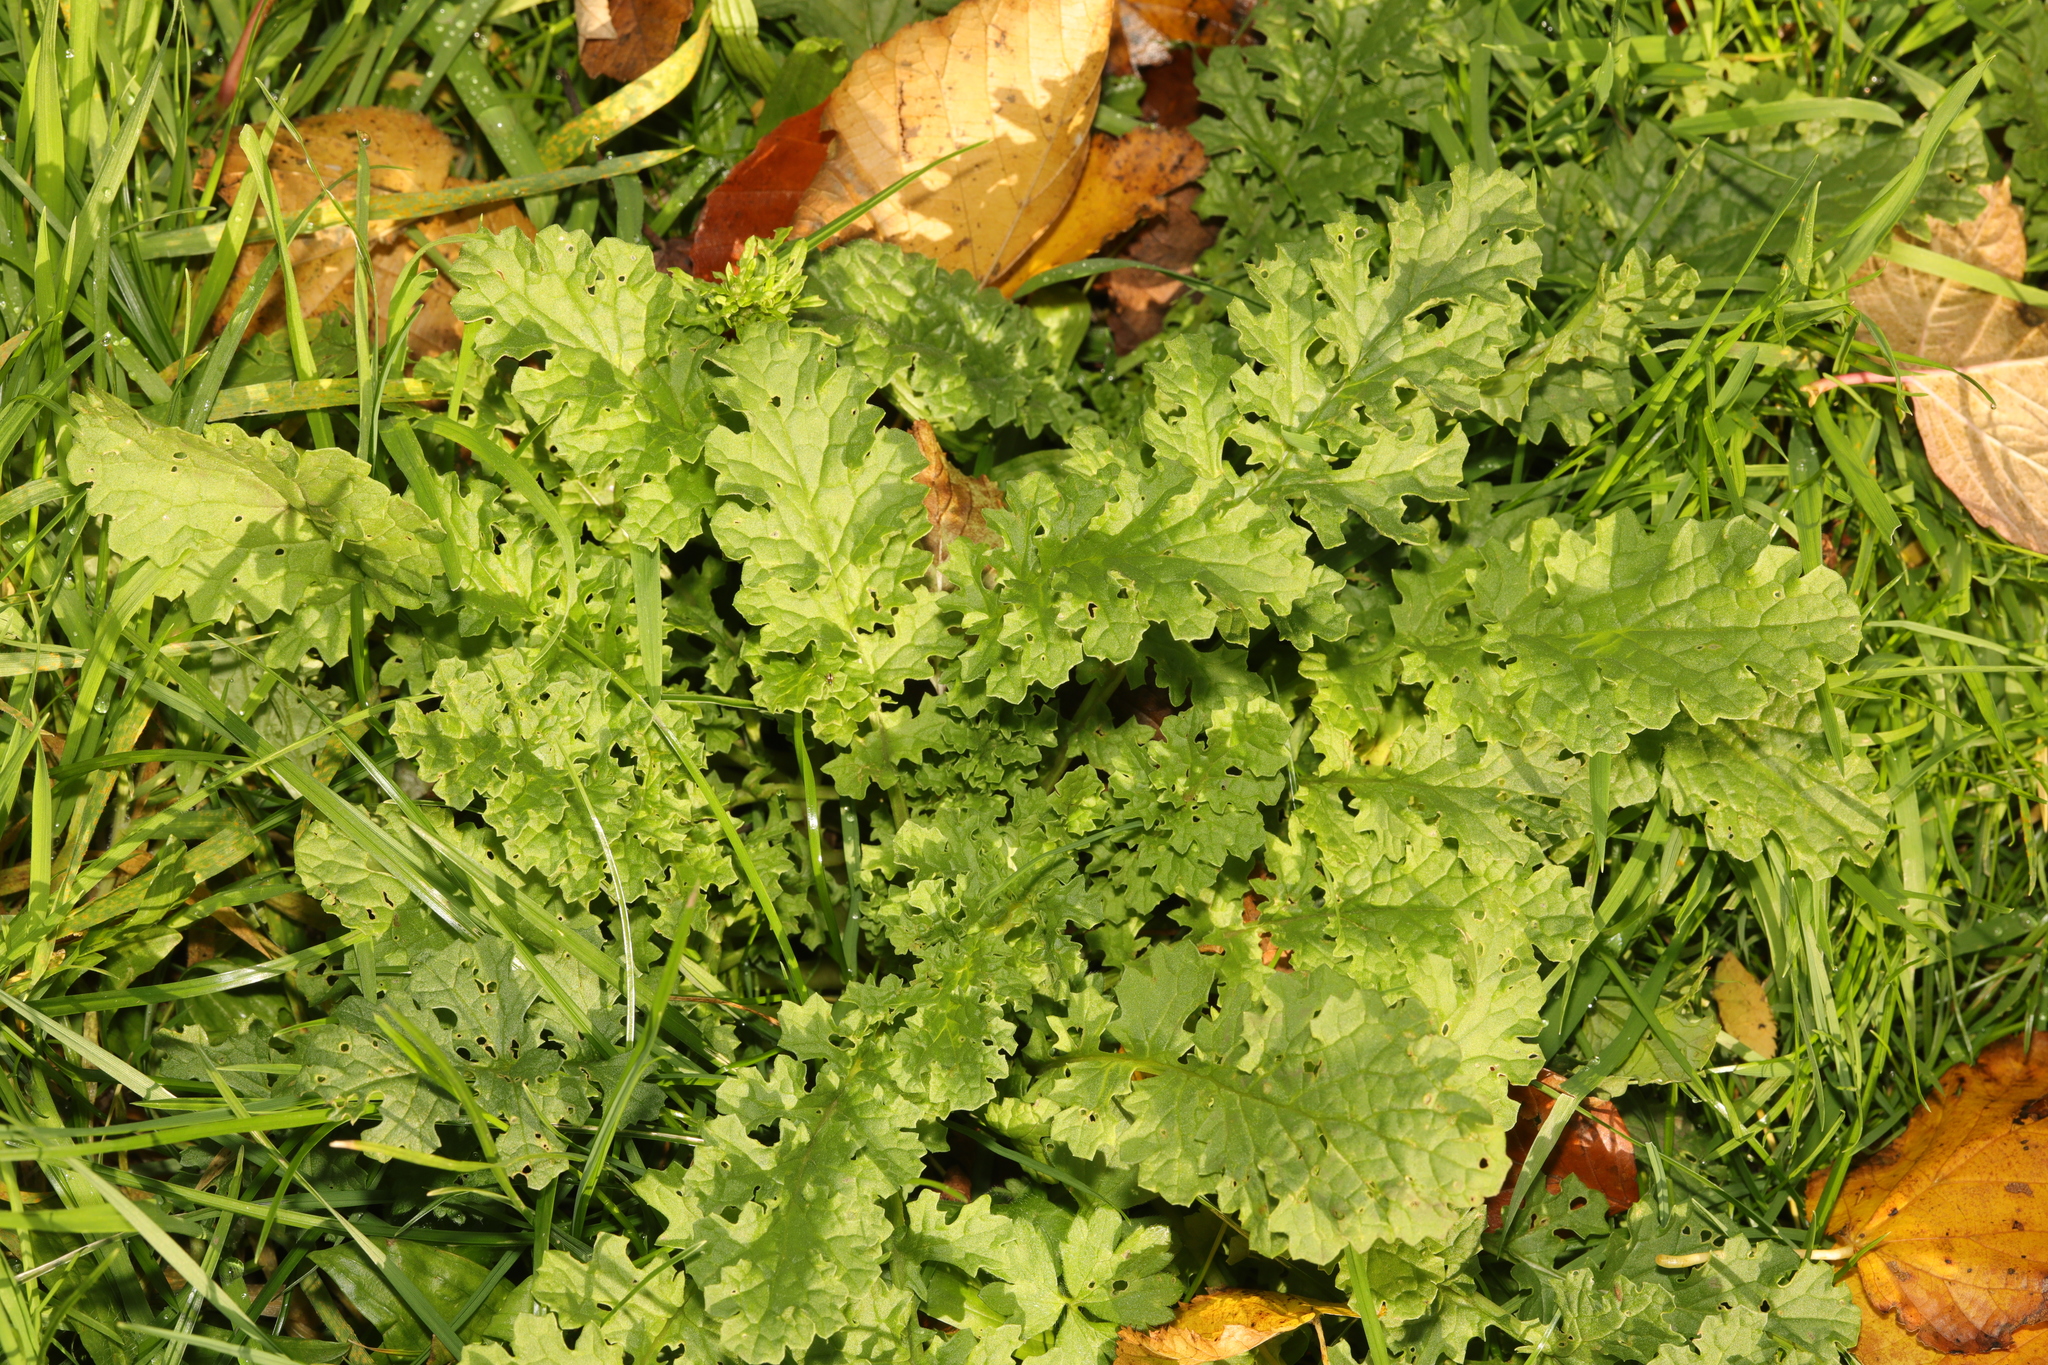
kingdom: Plantae
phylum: Tracheophyta
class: Magnoliopsida
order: Asterales
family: Asteraceae
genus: Jacobaea
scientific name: Jacobaea vulgaris
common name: Stinking willie
